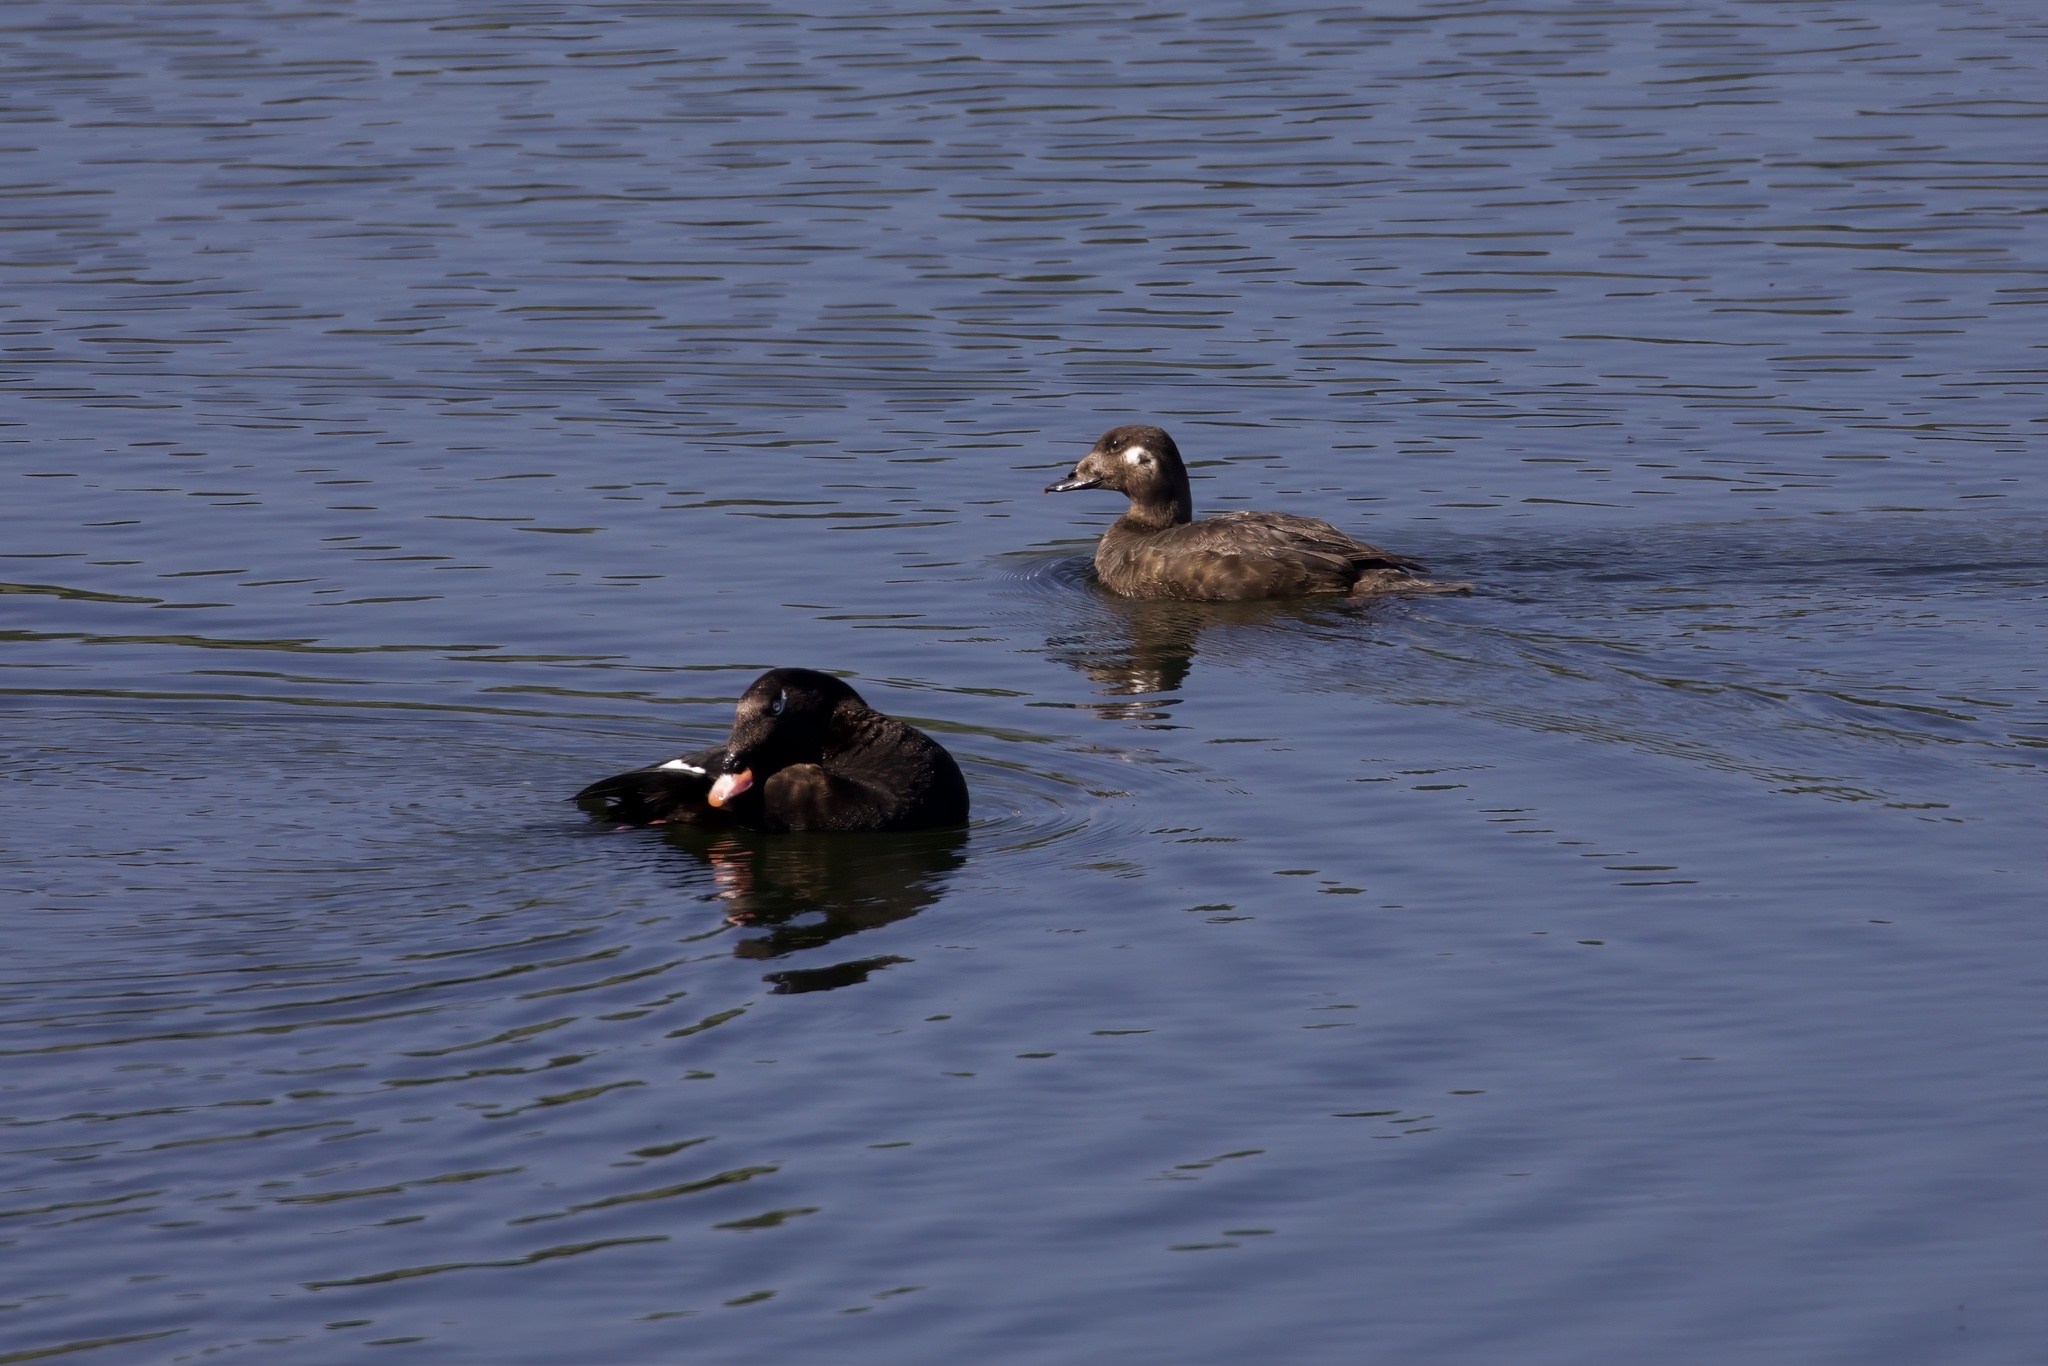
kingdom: Animalia
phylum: Chordata
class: Aves
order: Anseriformes
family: Anatidae
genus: Melanitta
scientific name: Melanitta deglandi
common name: White-winged scoter
